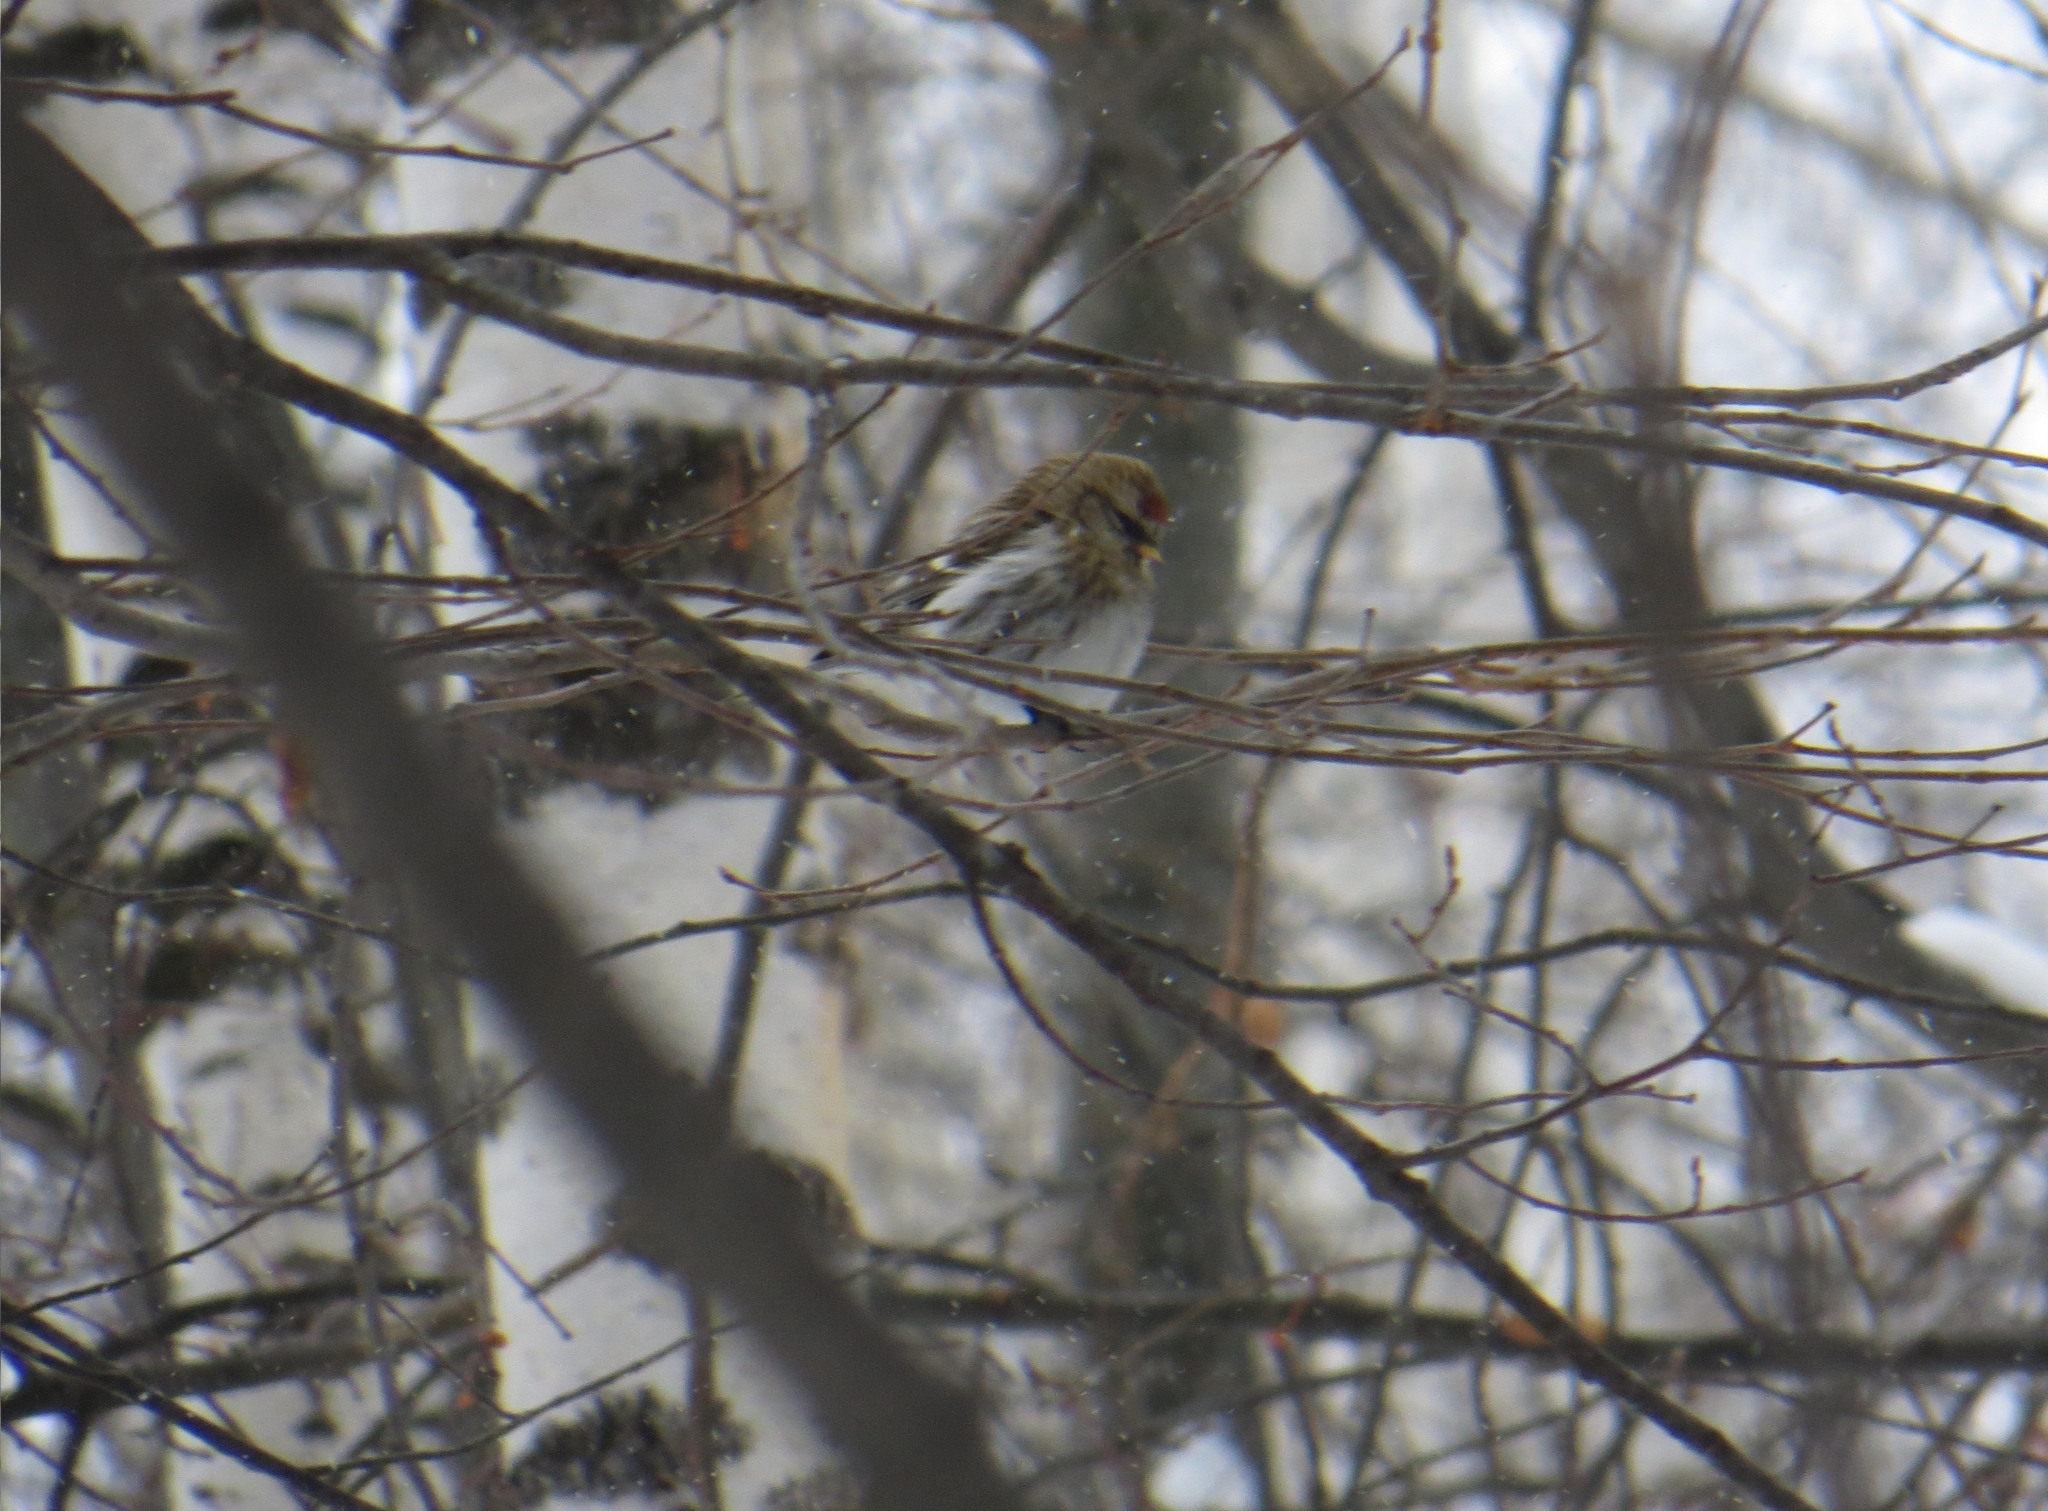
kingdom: Animalia
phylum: Chordata
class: Aves
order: Passeriformes
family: Fringillidae
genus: Acanthis
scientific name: Acanthis flammea
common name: Common redpoll
